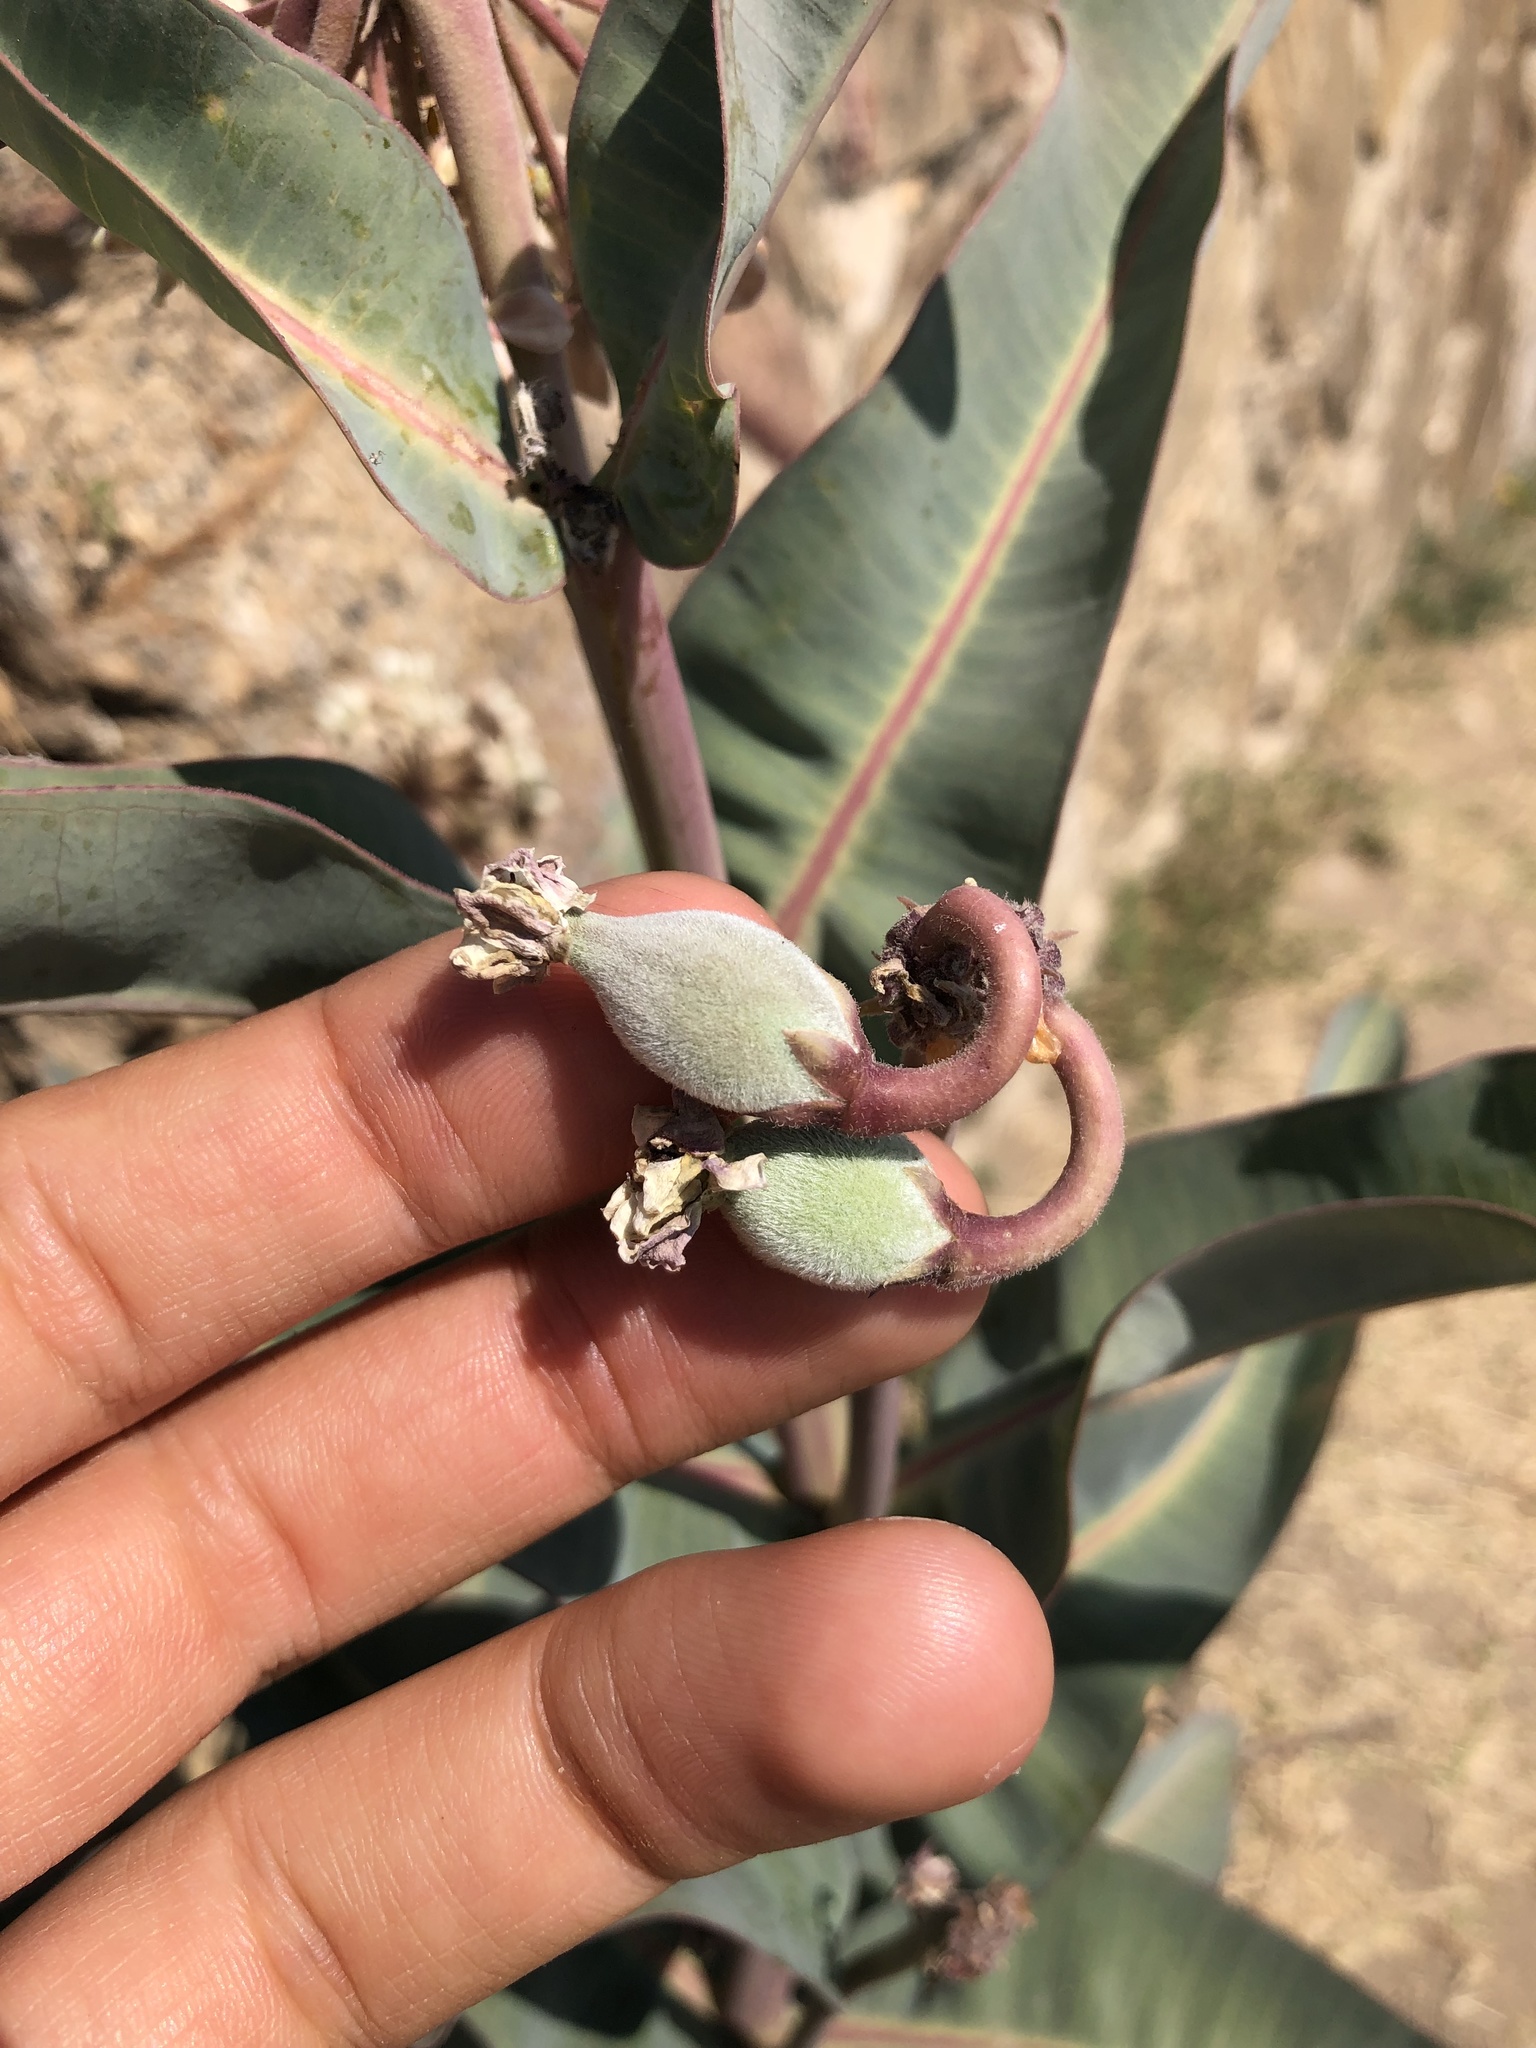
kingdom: Plantae
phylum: Tracheophyta
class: Magnoliopsida
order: Gentianales
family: Apocynaceae
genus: Asclepias
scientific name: Asclepias glaucescens
